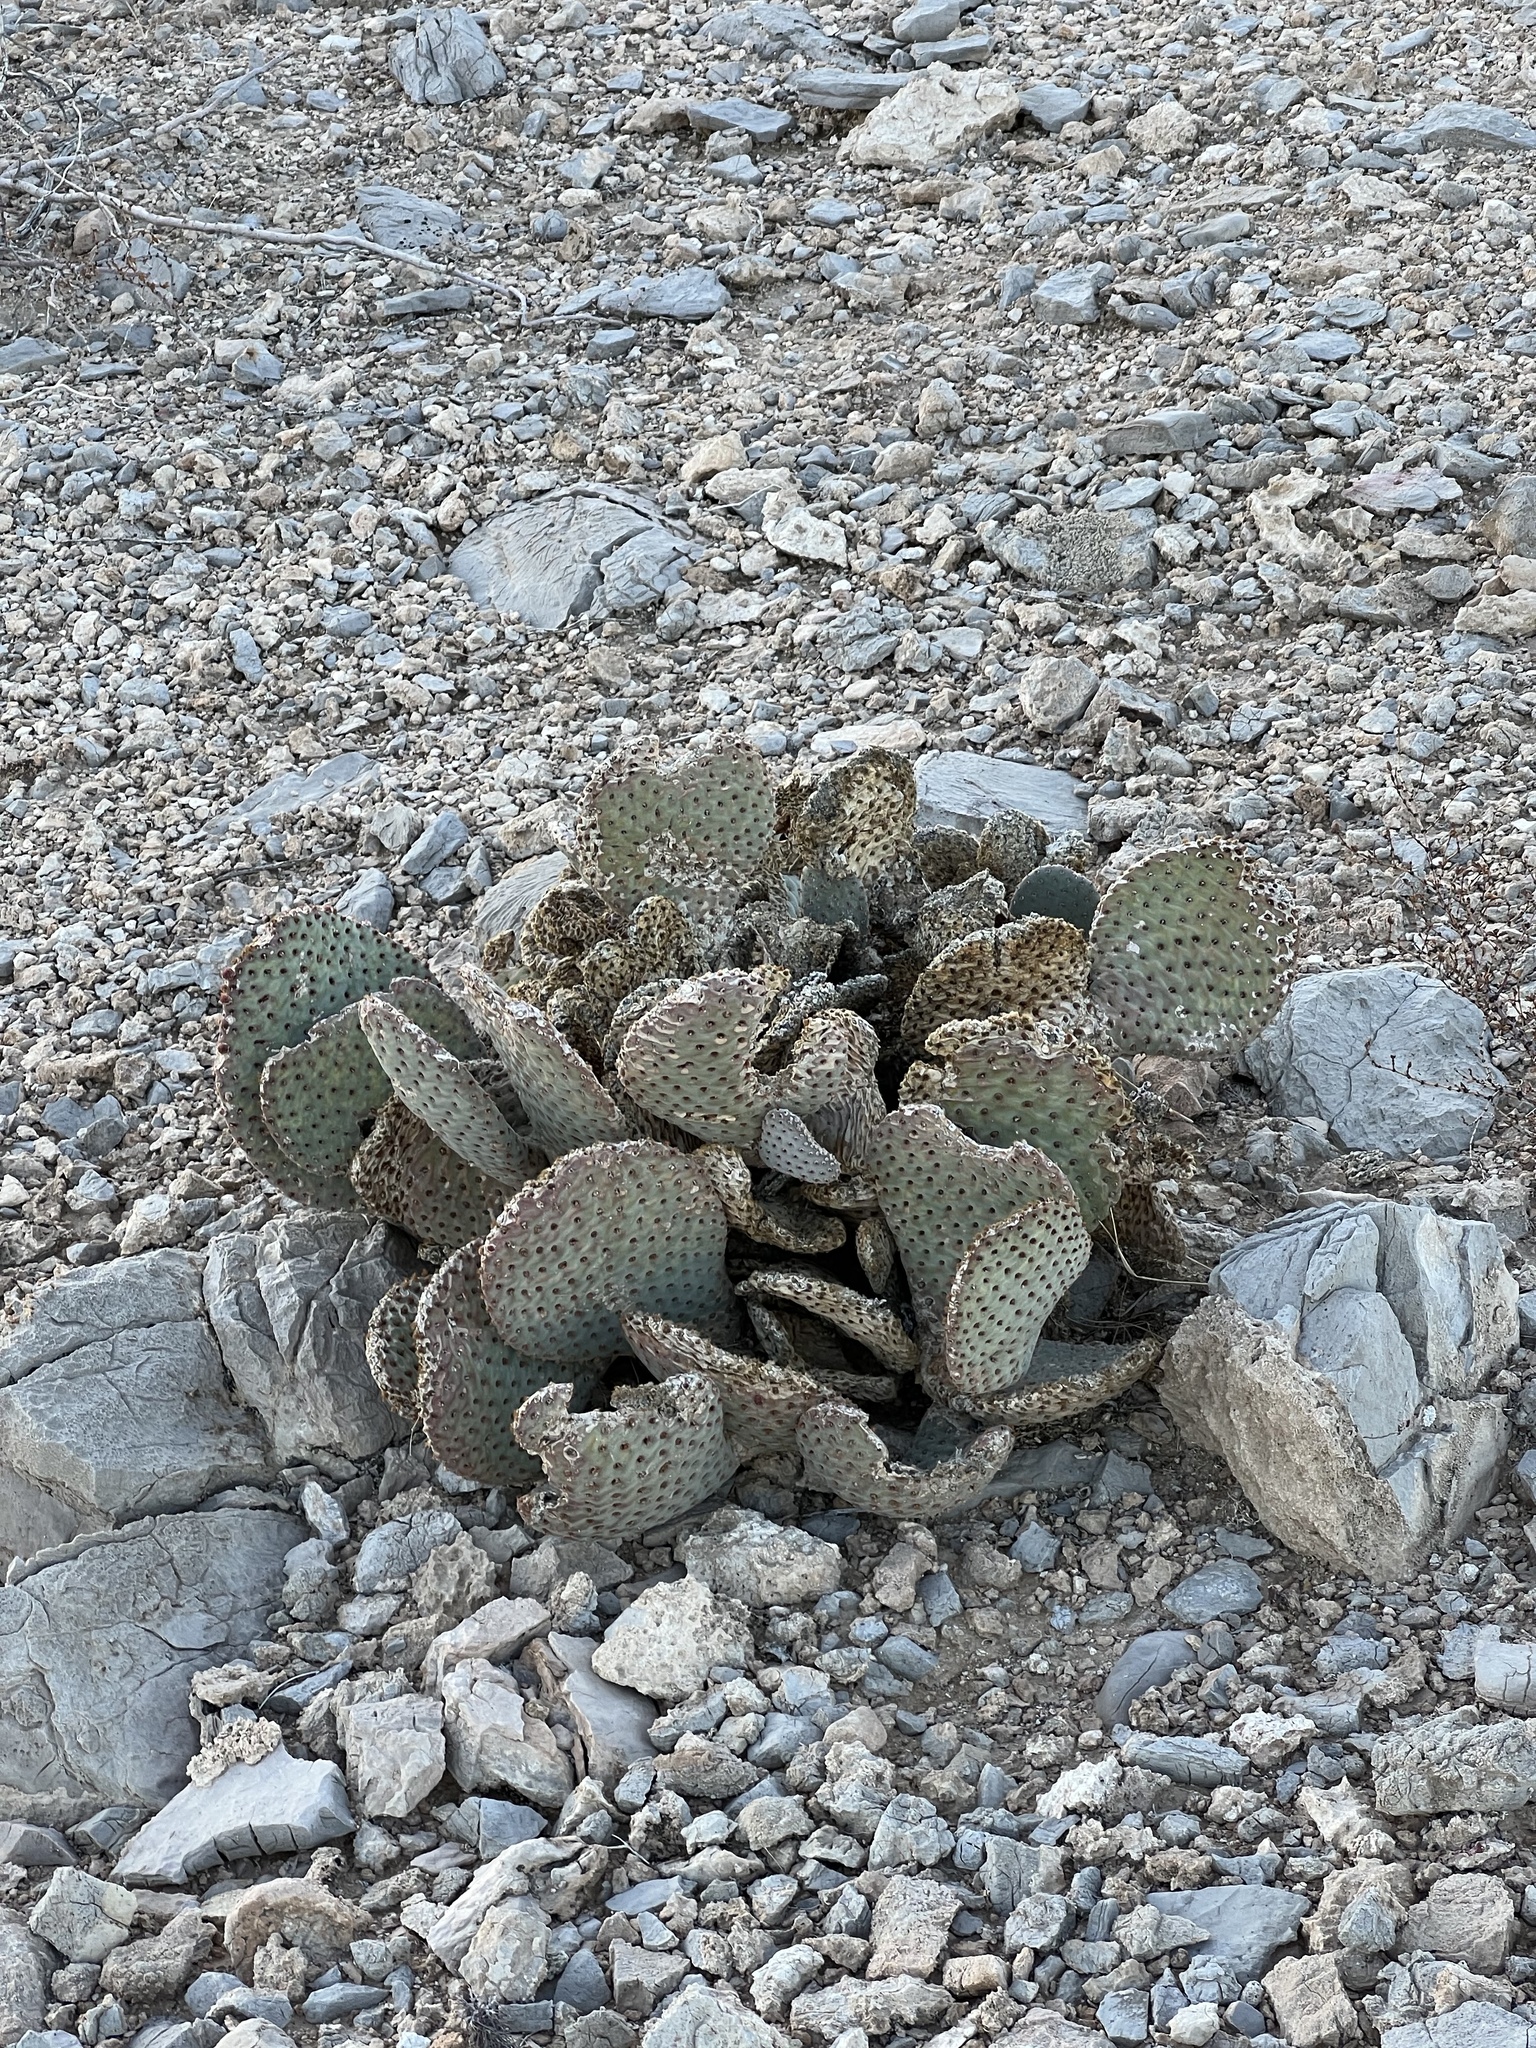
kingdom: Plantae
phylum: Tracheophyta
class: Magnoliopsida
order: Caryophyllales
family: Cactaceae
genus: Opuntia
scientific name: Opuntia basilaris
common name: Beavertail prickly-pear
